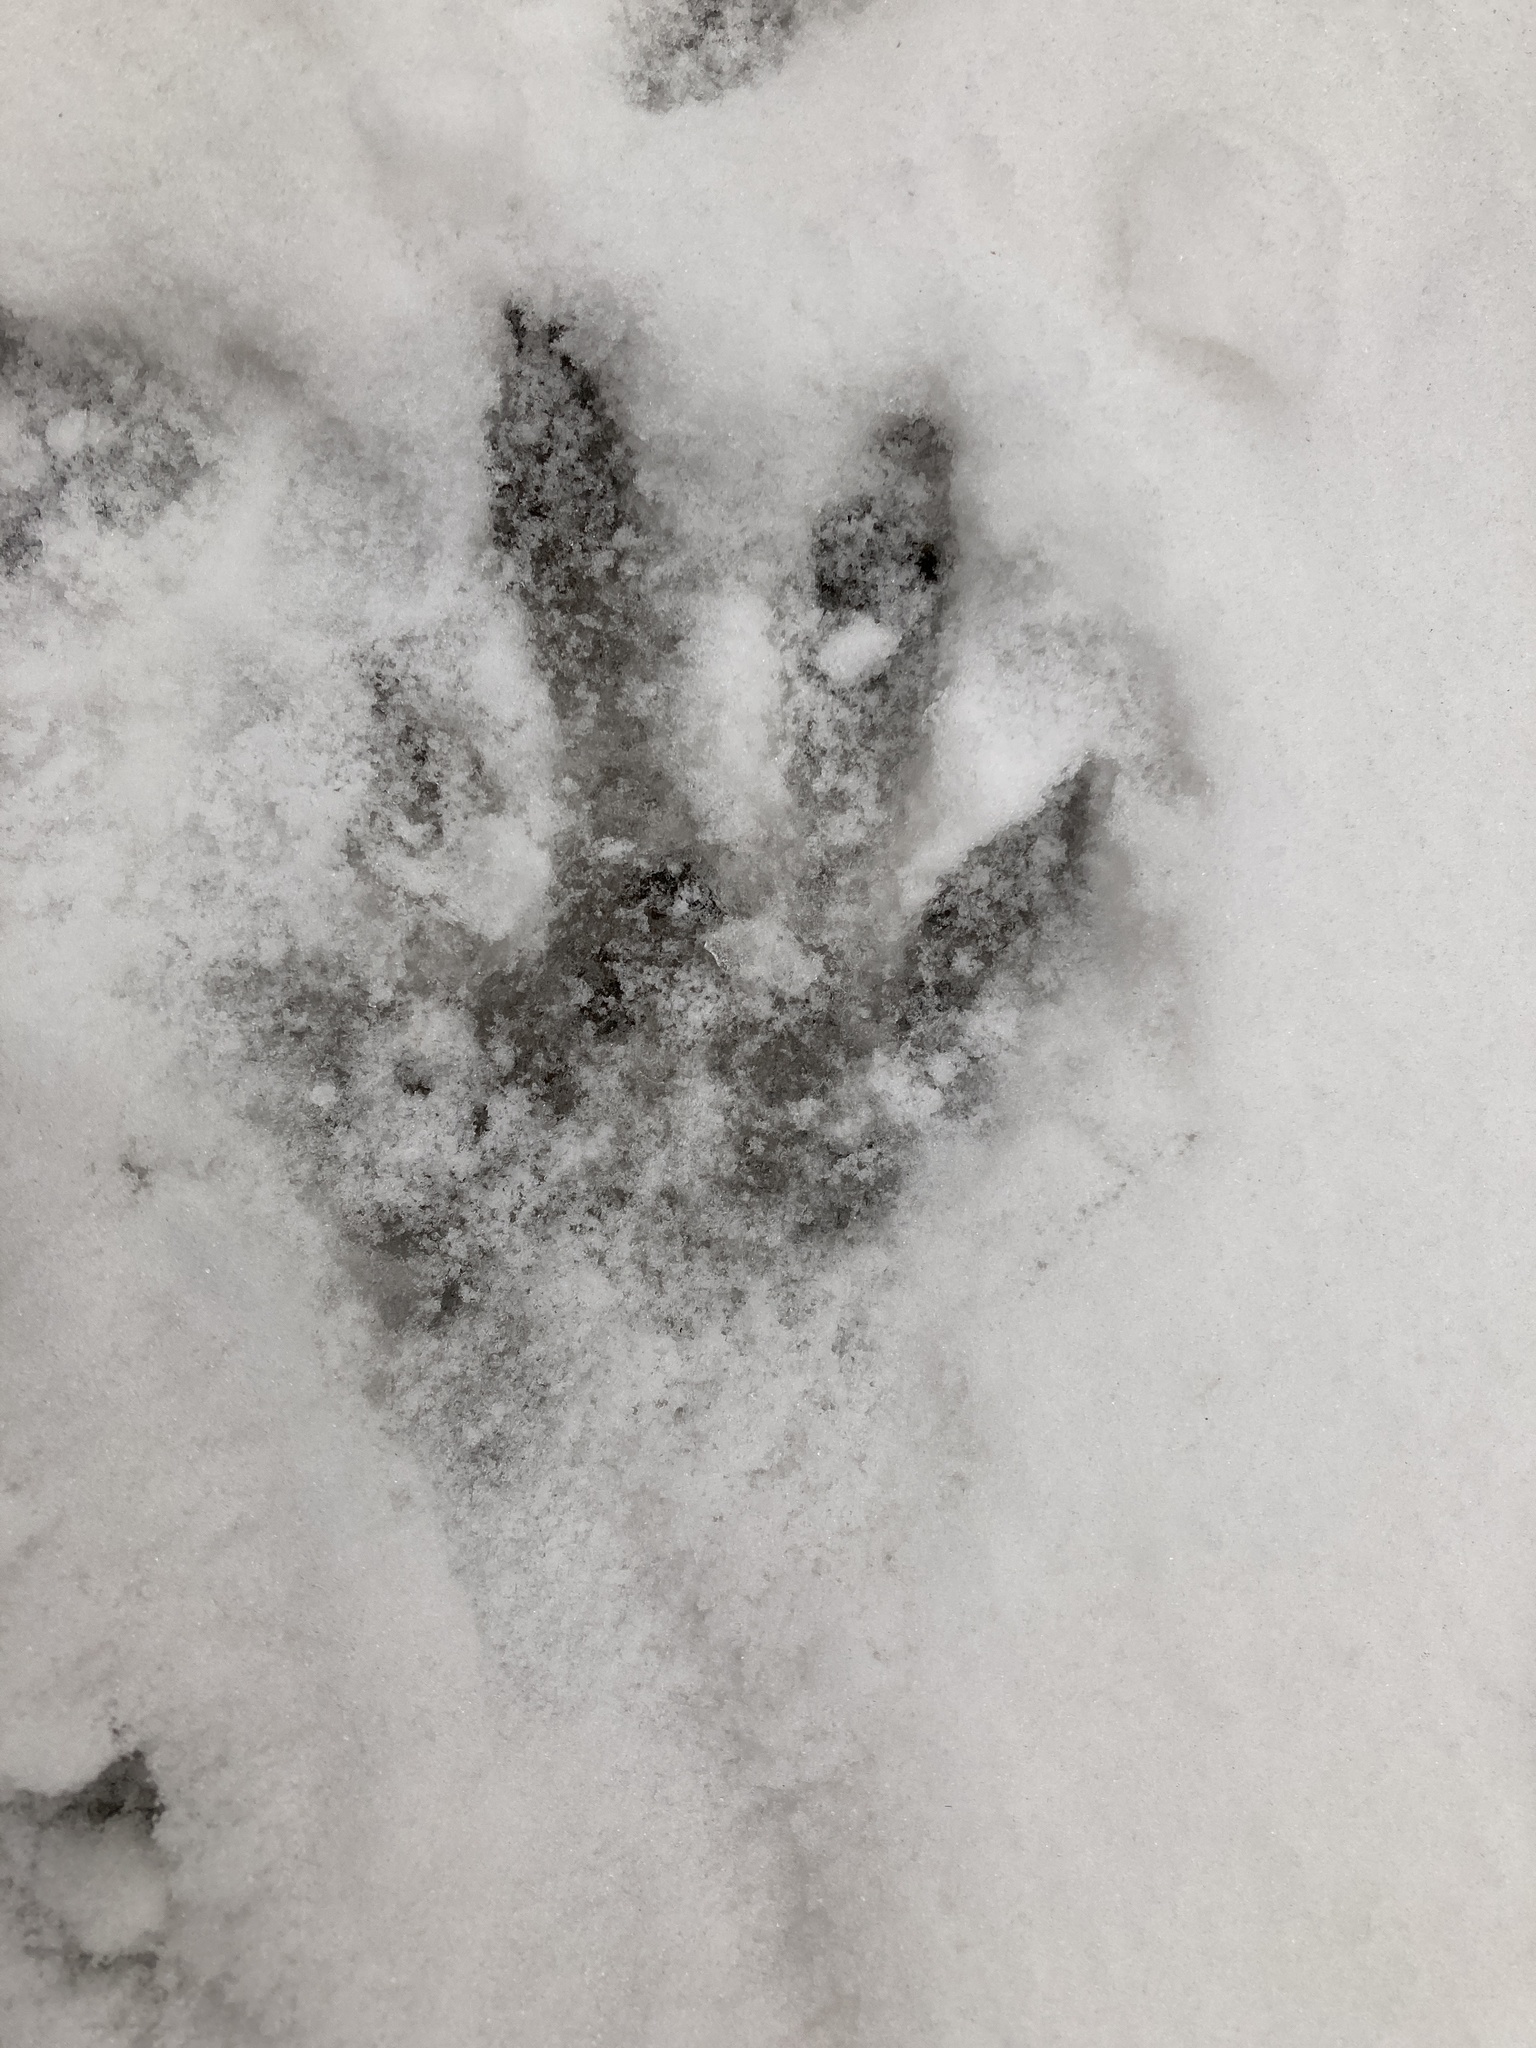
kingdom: Animalia
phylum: Chordata
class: Mammalia
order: Rodentia
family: Myocastoridae
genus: Myocastor
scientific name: Myocastor coypus
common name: Coypu
